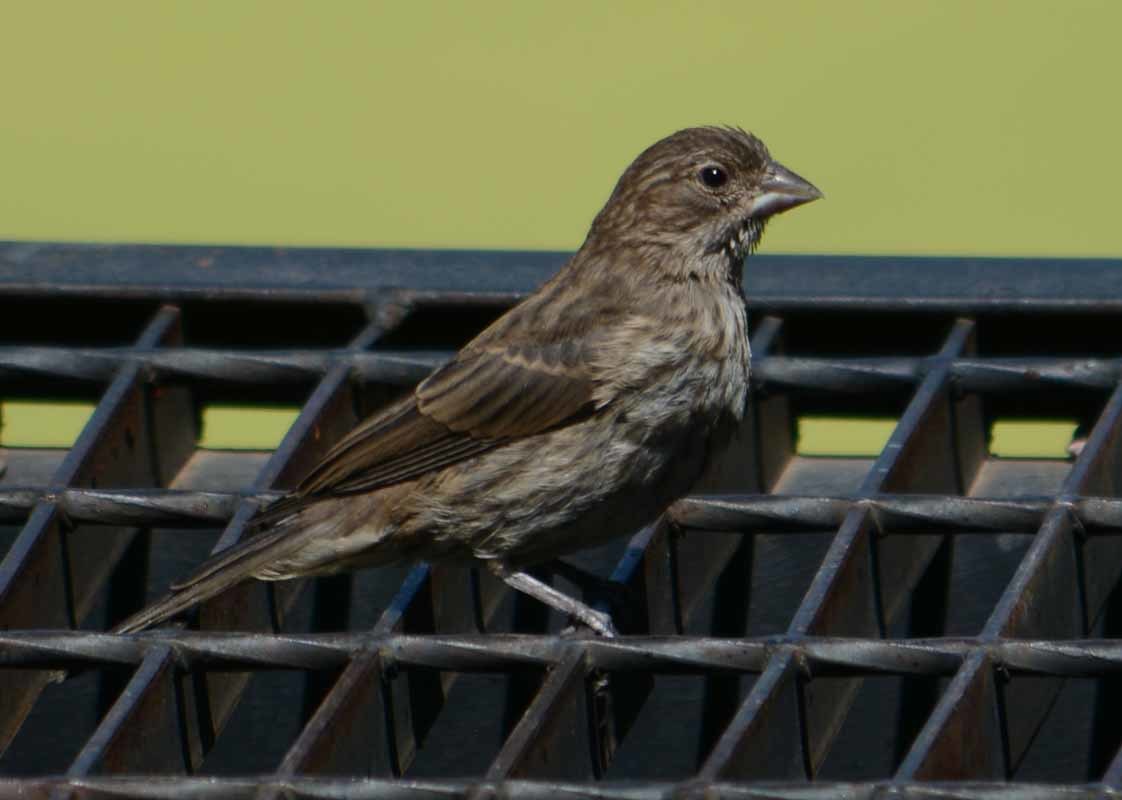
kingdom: Animalia
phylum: Chordata
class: Aves
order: Passeriformes
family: Fringillidae
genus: Haemorhous
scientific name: Haemorhous mexicanus
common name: House finch
